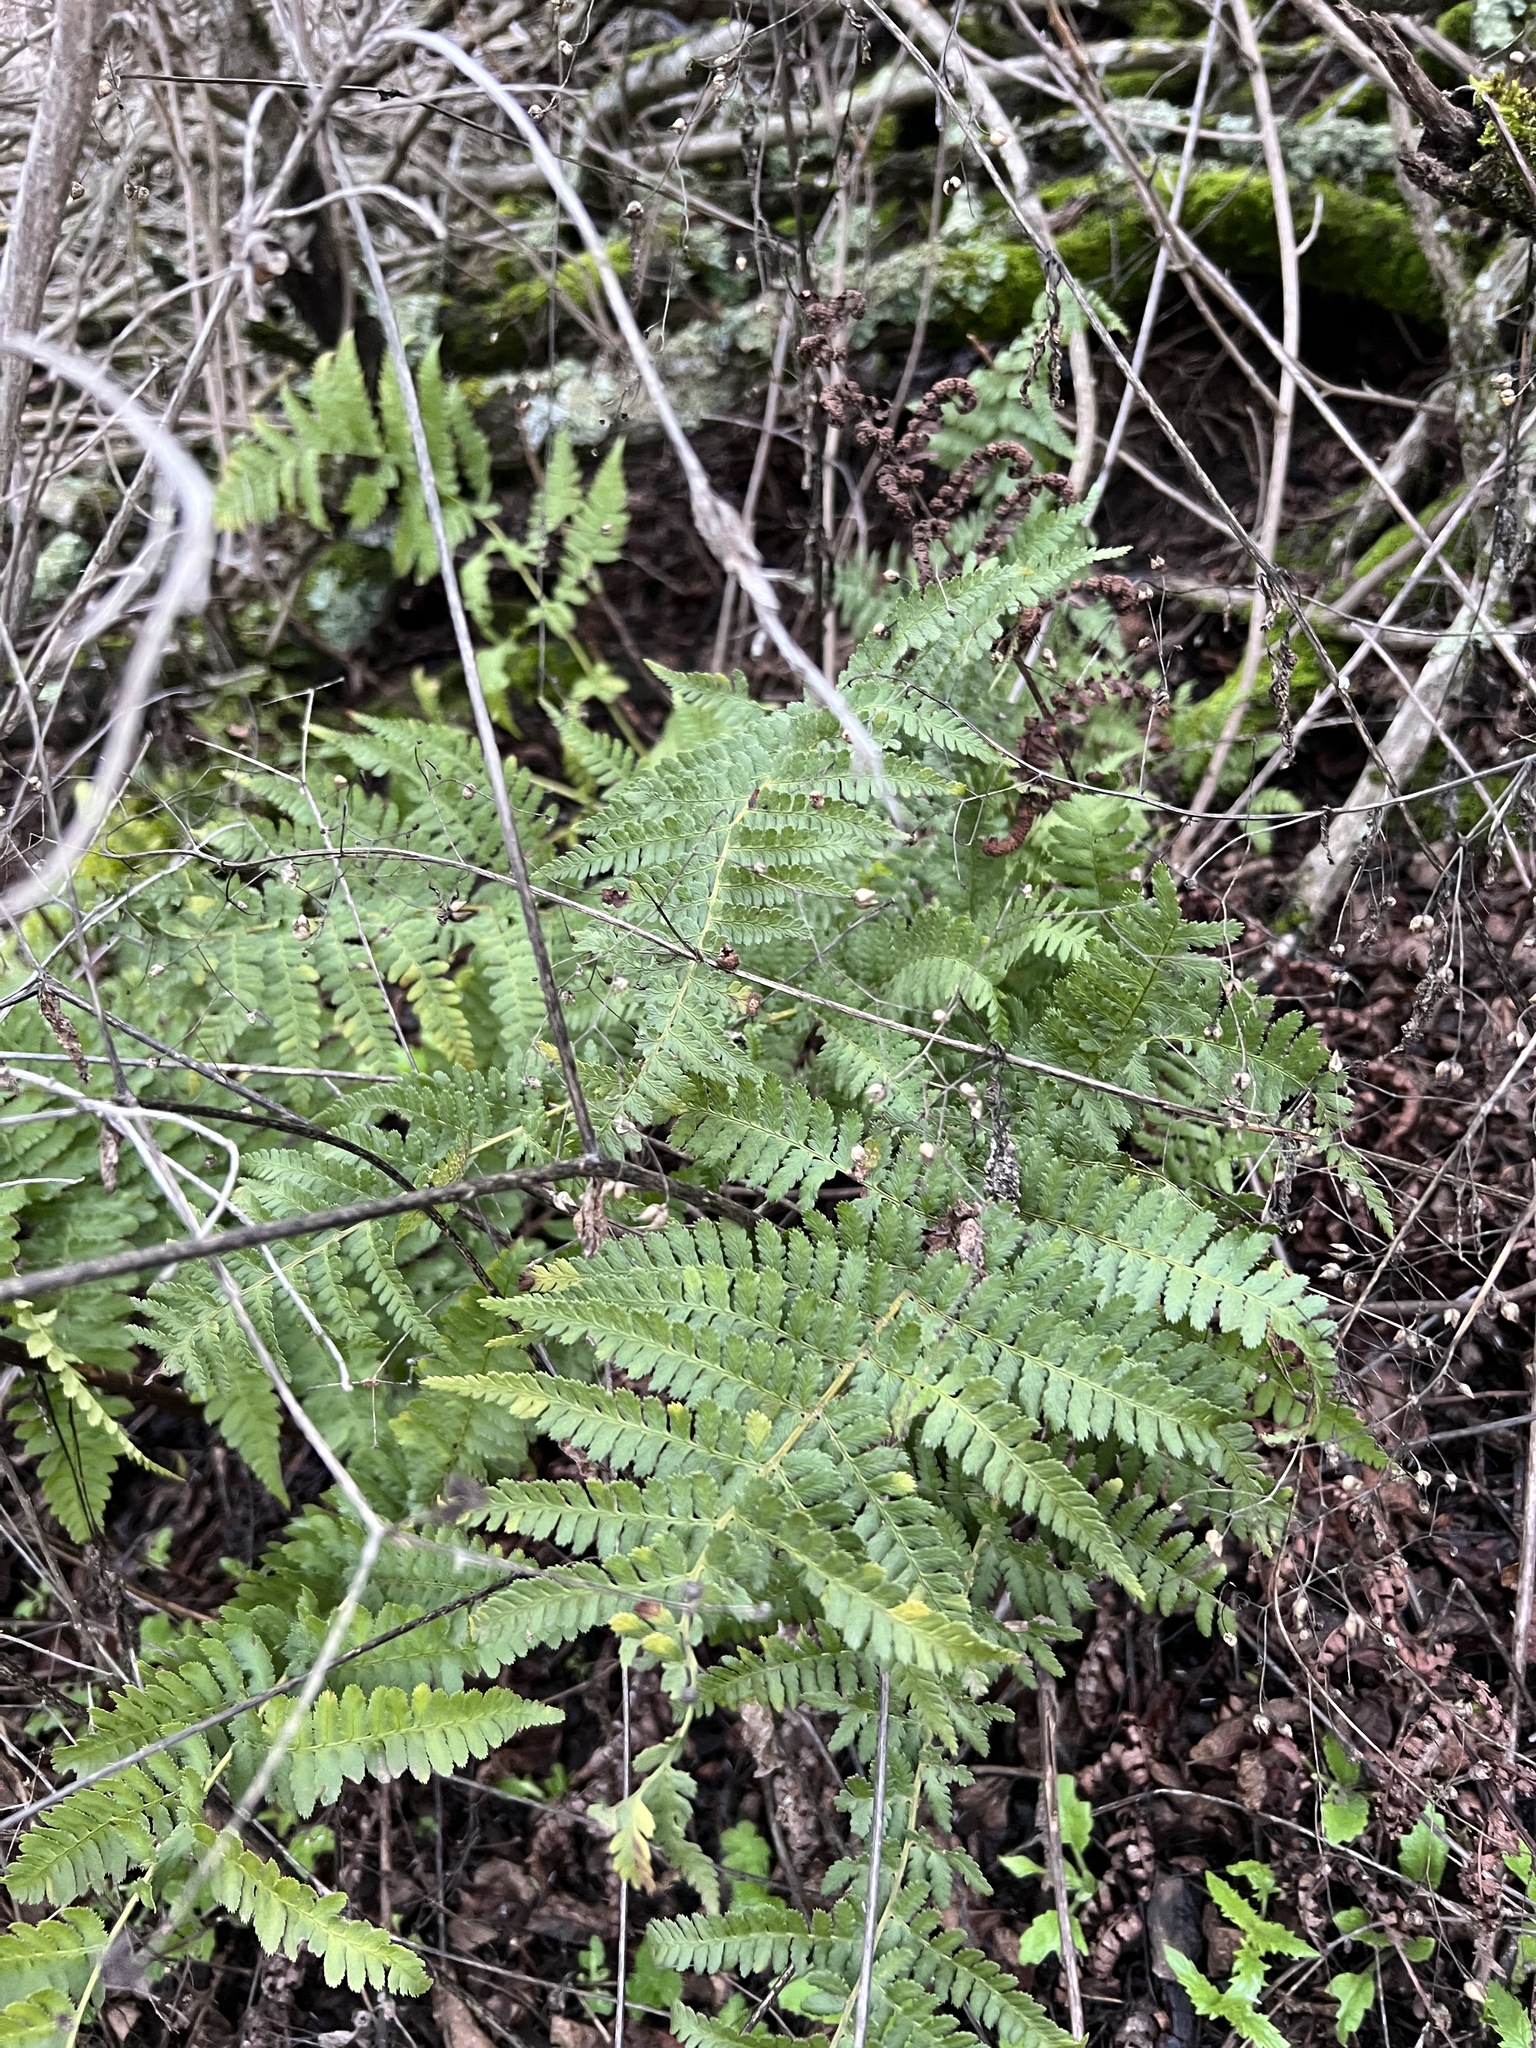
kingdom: Plantae
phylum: Tracheophyta
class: Polypodiopsida
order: Polypodiales
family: Dryopteridaceae
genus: Dryopteris
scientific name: Dryopteris arguta
